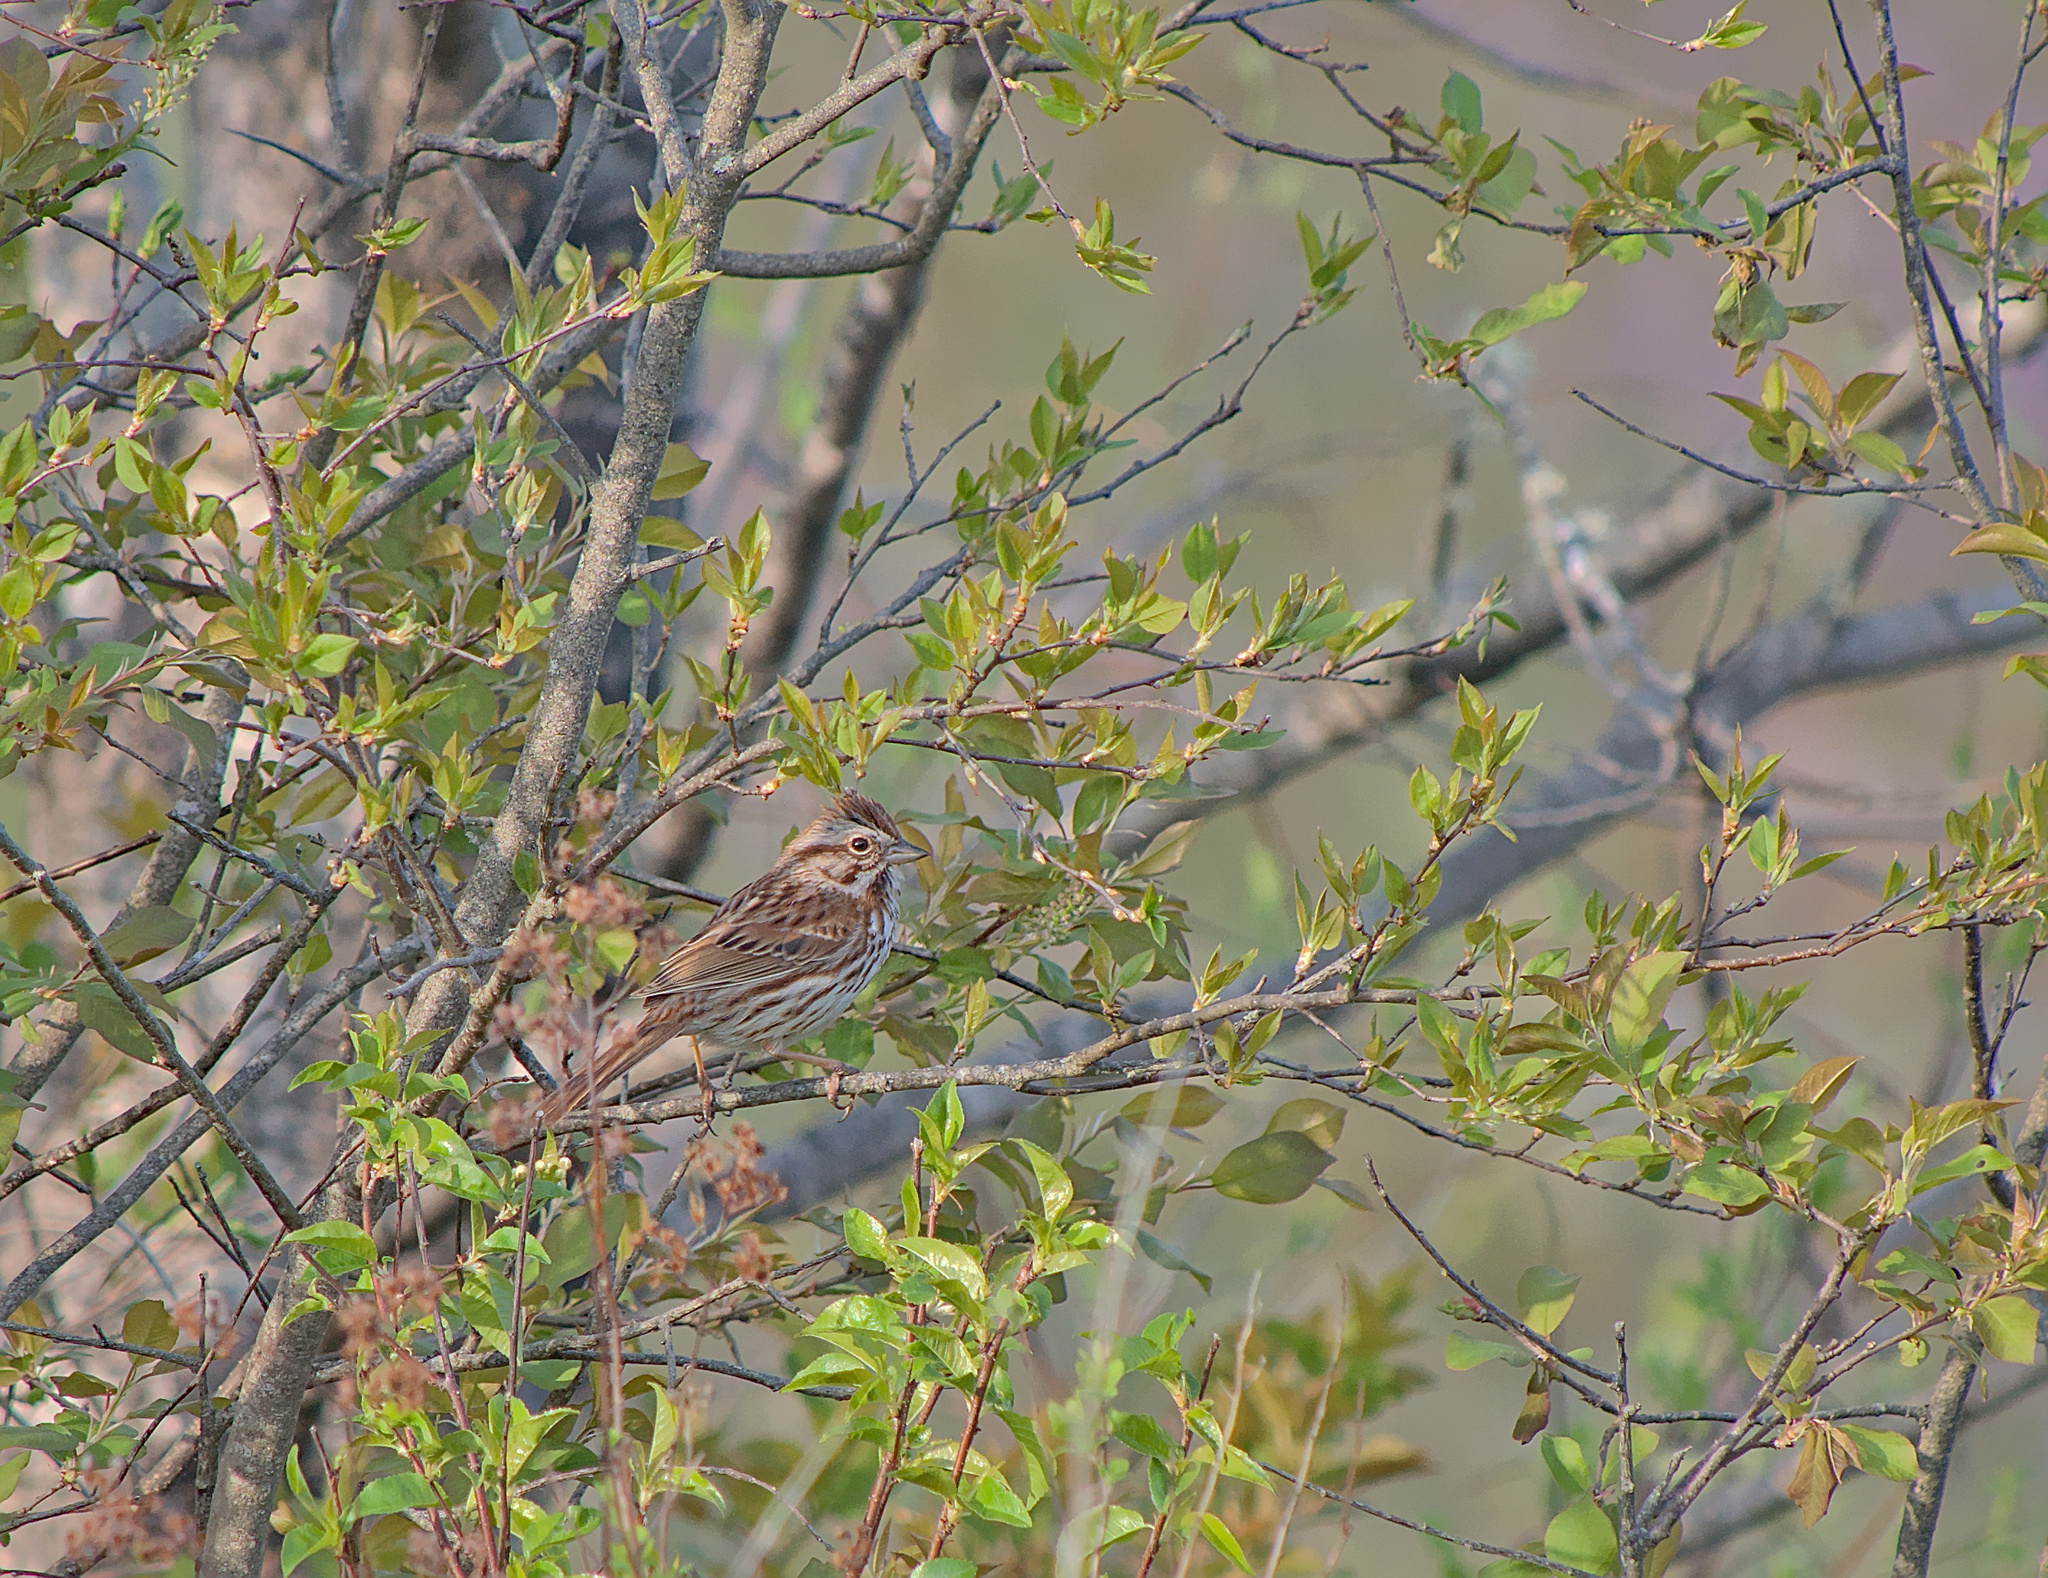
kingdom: Animalia
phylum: Chordata
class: Aves
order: Passeriformes
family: Passerellidae
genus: Melospiza
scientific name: Melospiza melodia
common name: Song sparrow
